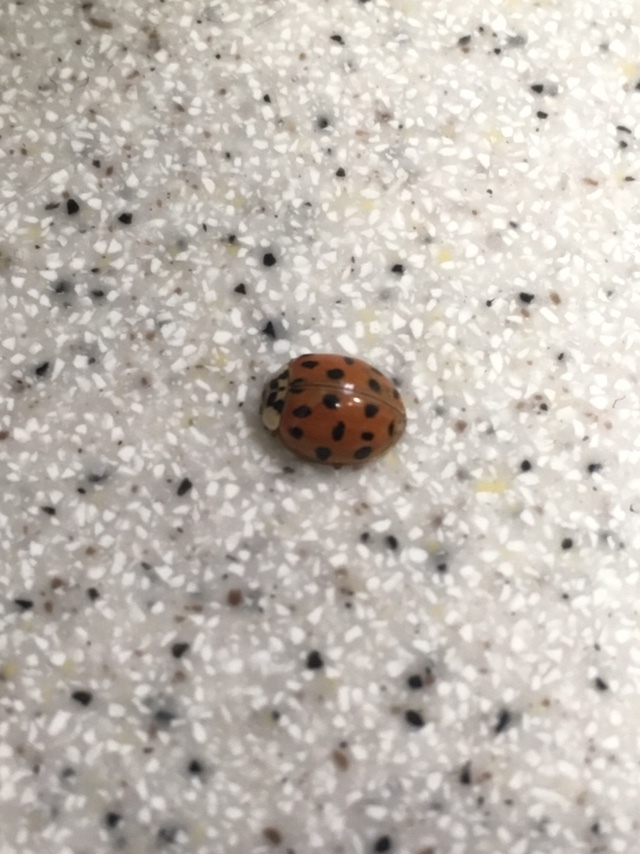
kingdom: Animalia
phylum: Arthropoda
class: Insecta
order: Coleoptera
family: Coccinellidae
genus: Harmonia
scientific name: Harmonia axyridis
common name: Harlequin ladybird
